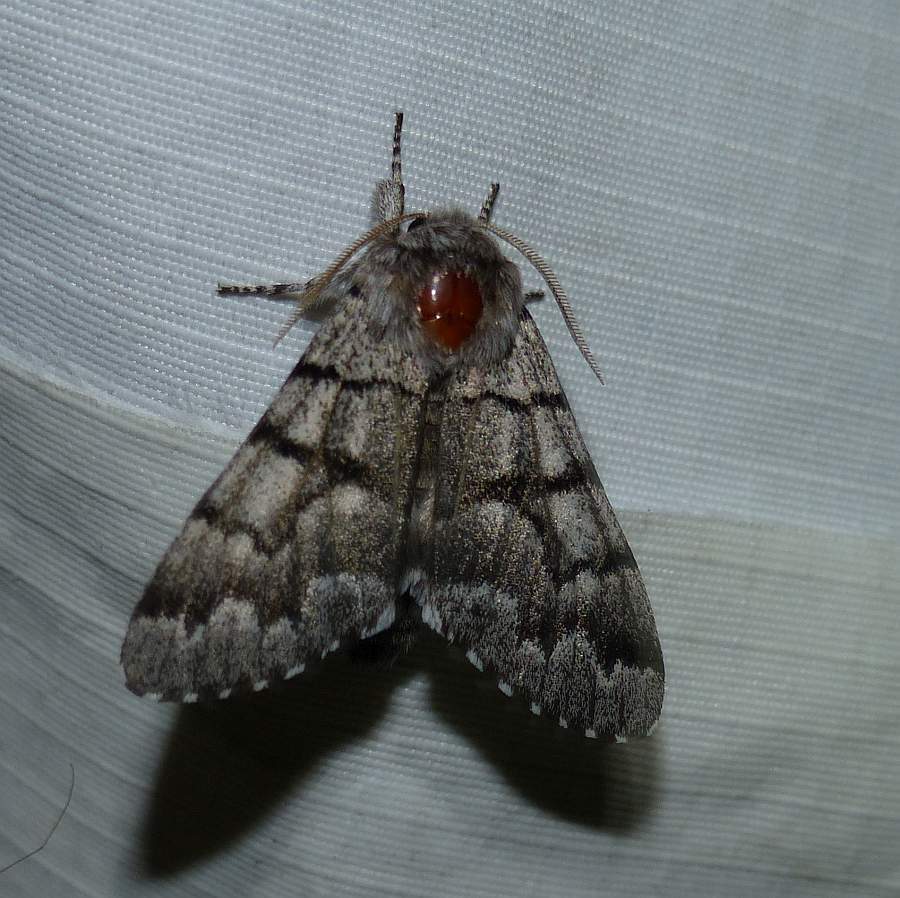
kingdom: Animalia
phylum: Arthropoda
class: Insecta
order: Lepidoptera
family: Noctuidae
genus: Panthea
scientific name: Panthea furcilla
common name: Eastern panthea moth
